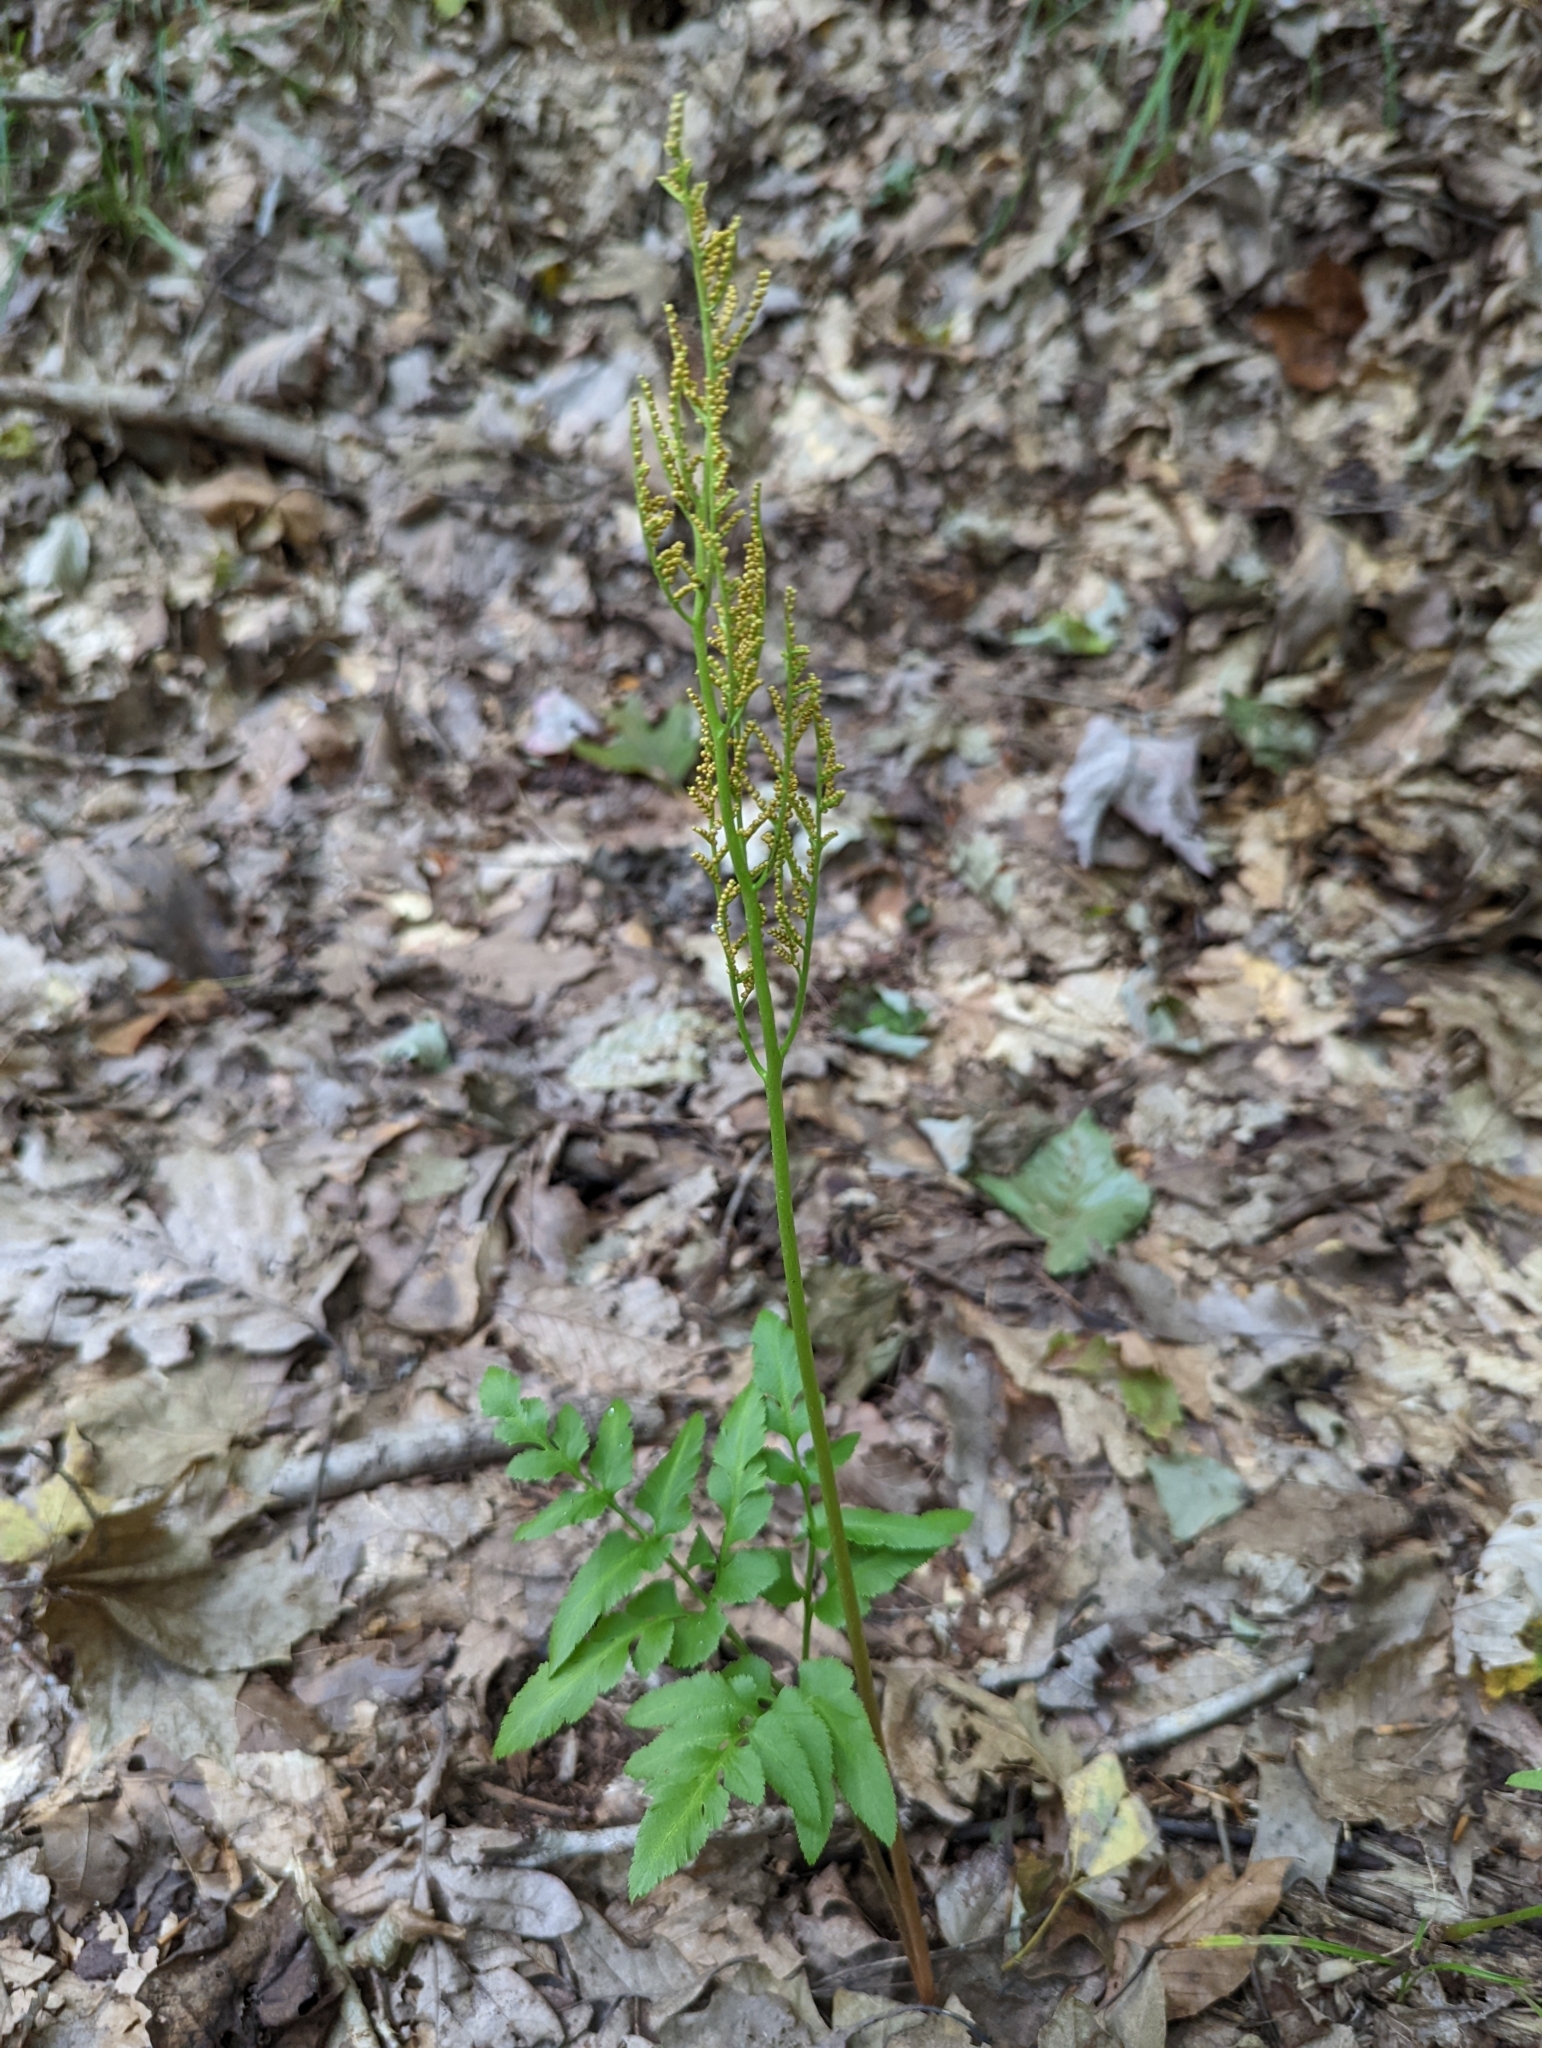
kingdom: Plantae
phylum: Tracheophyta
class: Polypodiopsida
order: Ophioglossales
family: Ophioglossaceae
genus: Sceptridium
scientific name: Sceptridium dissectum
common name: Cut-leaved grapefern
